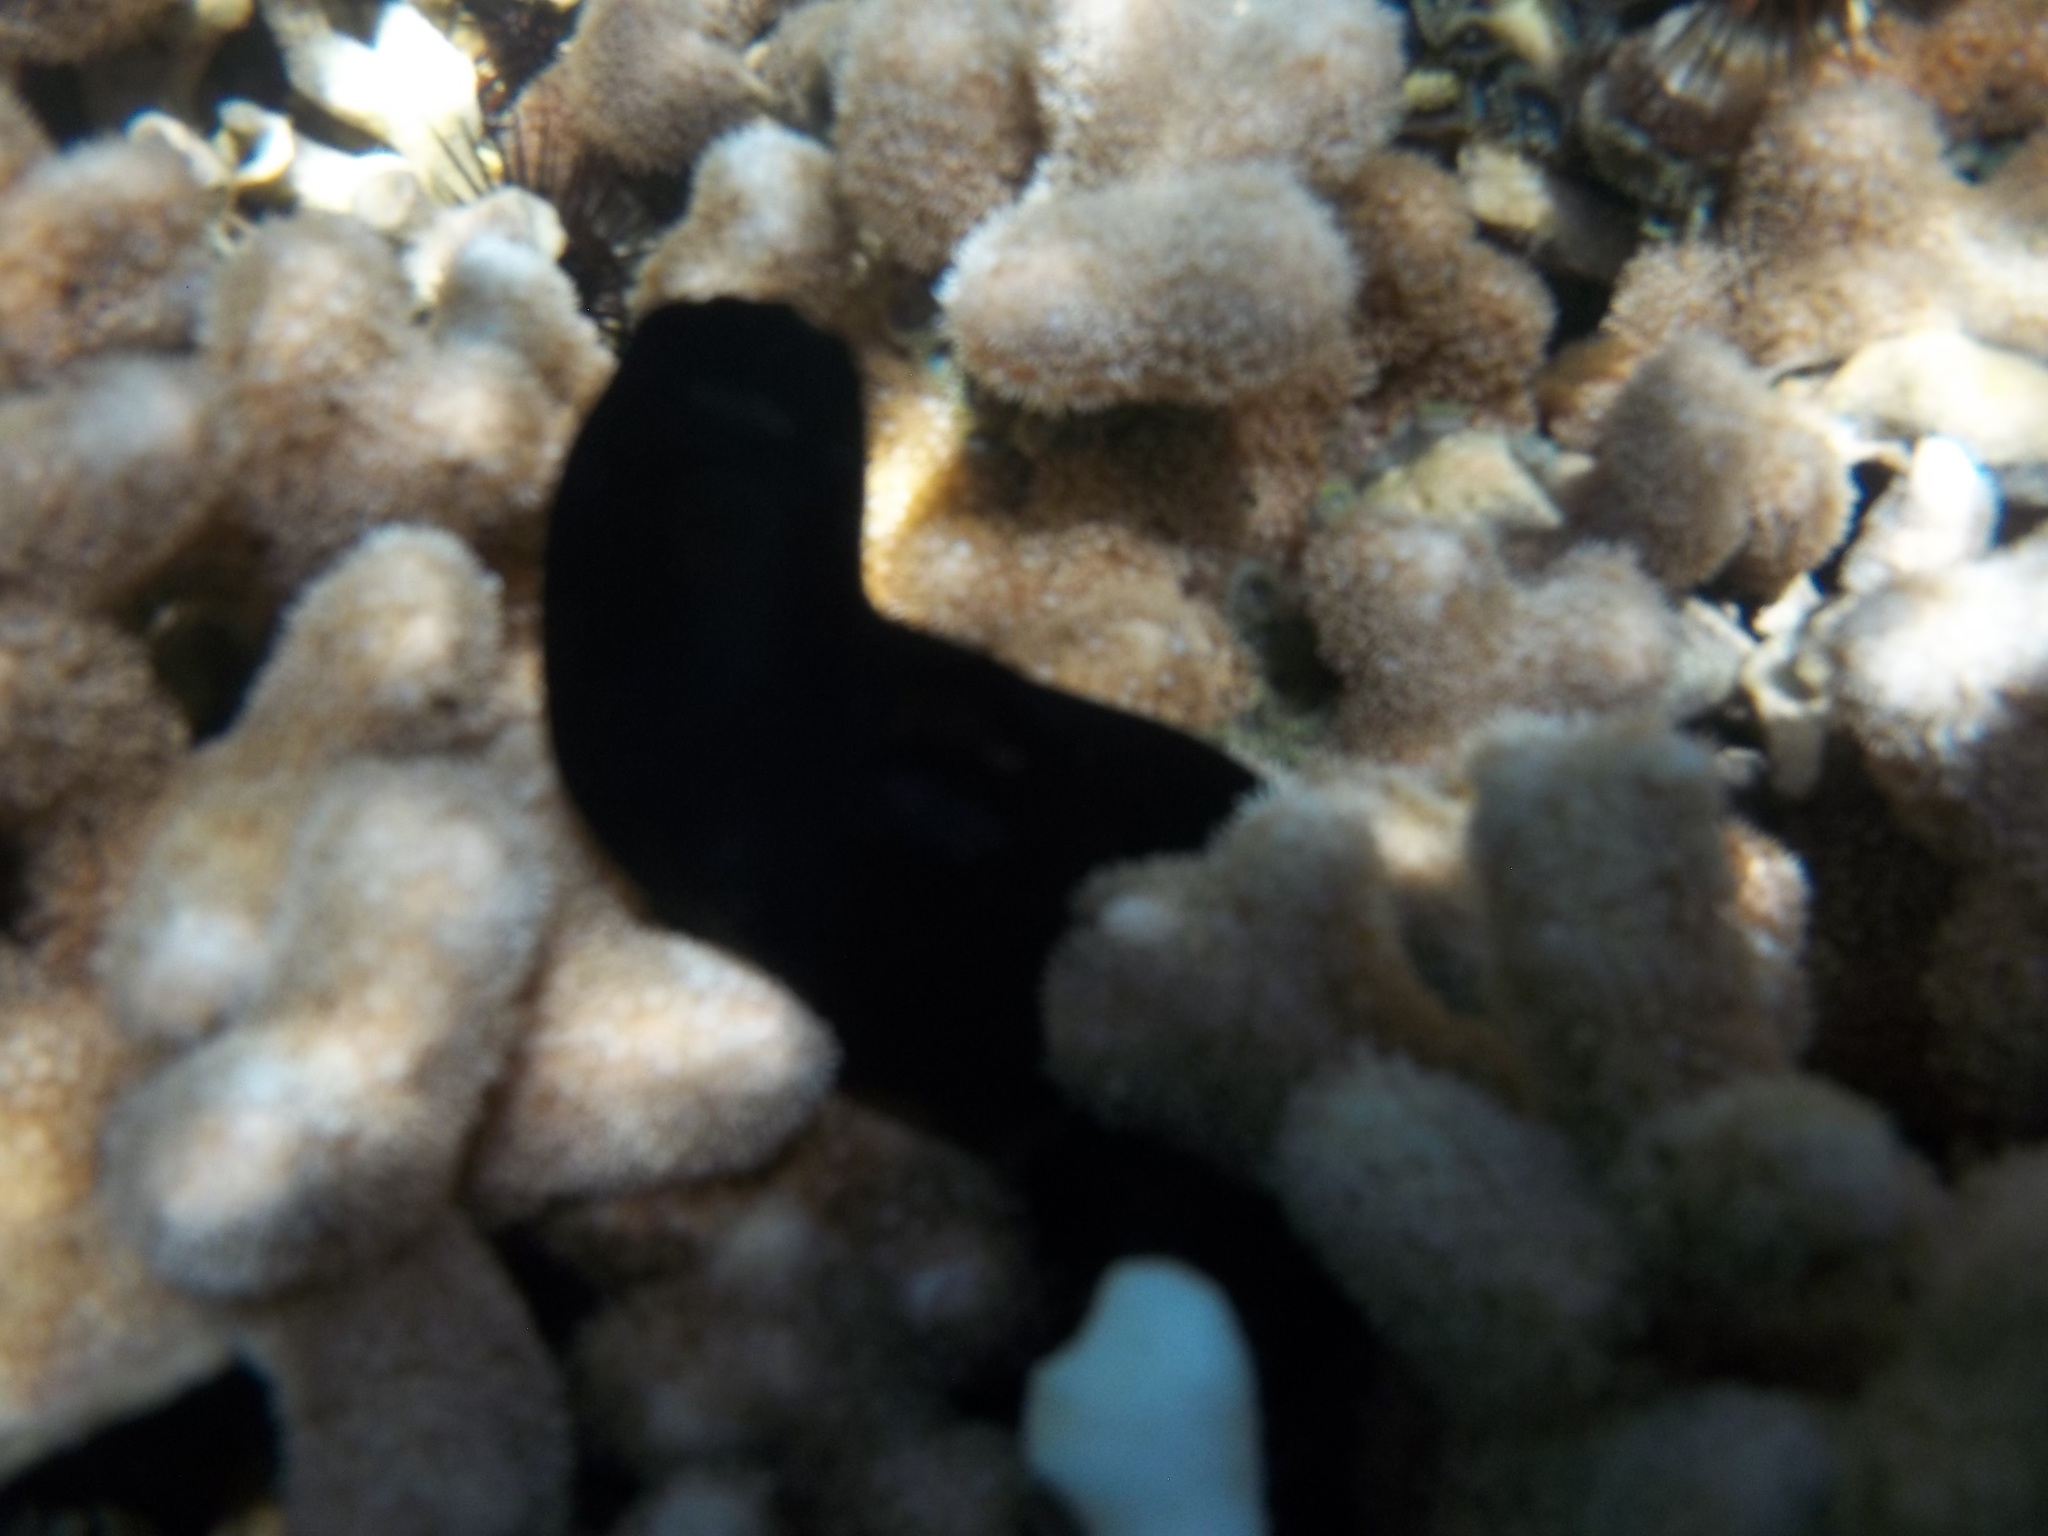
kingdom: Animalia
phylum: Chordata
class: Ascidiacea
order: Phlebobranchia
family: Ascidiidae
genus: Phallusia
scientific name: Phallusia nigra
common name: Black tunicate
